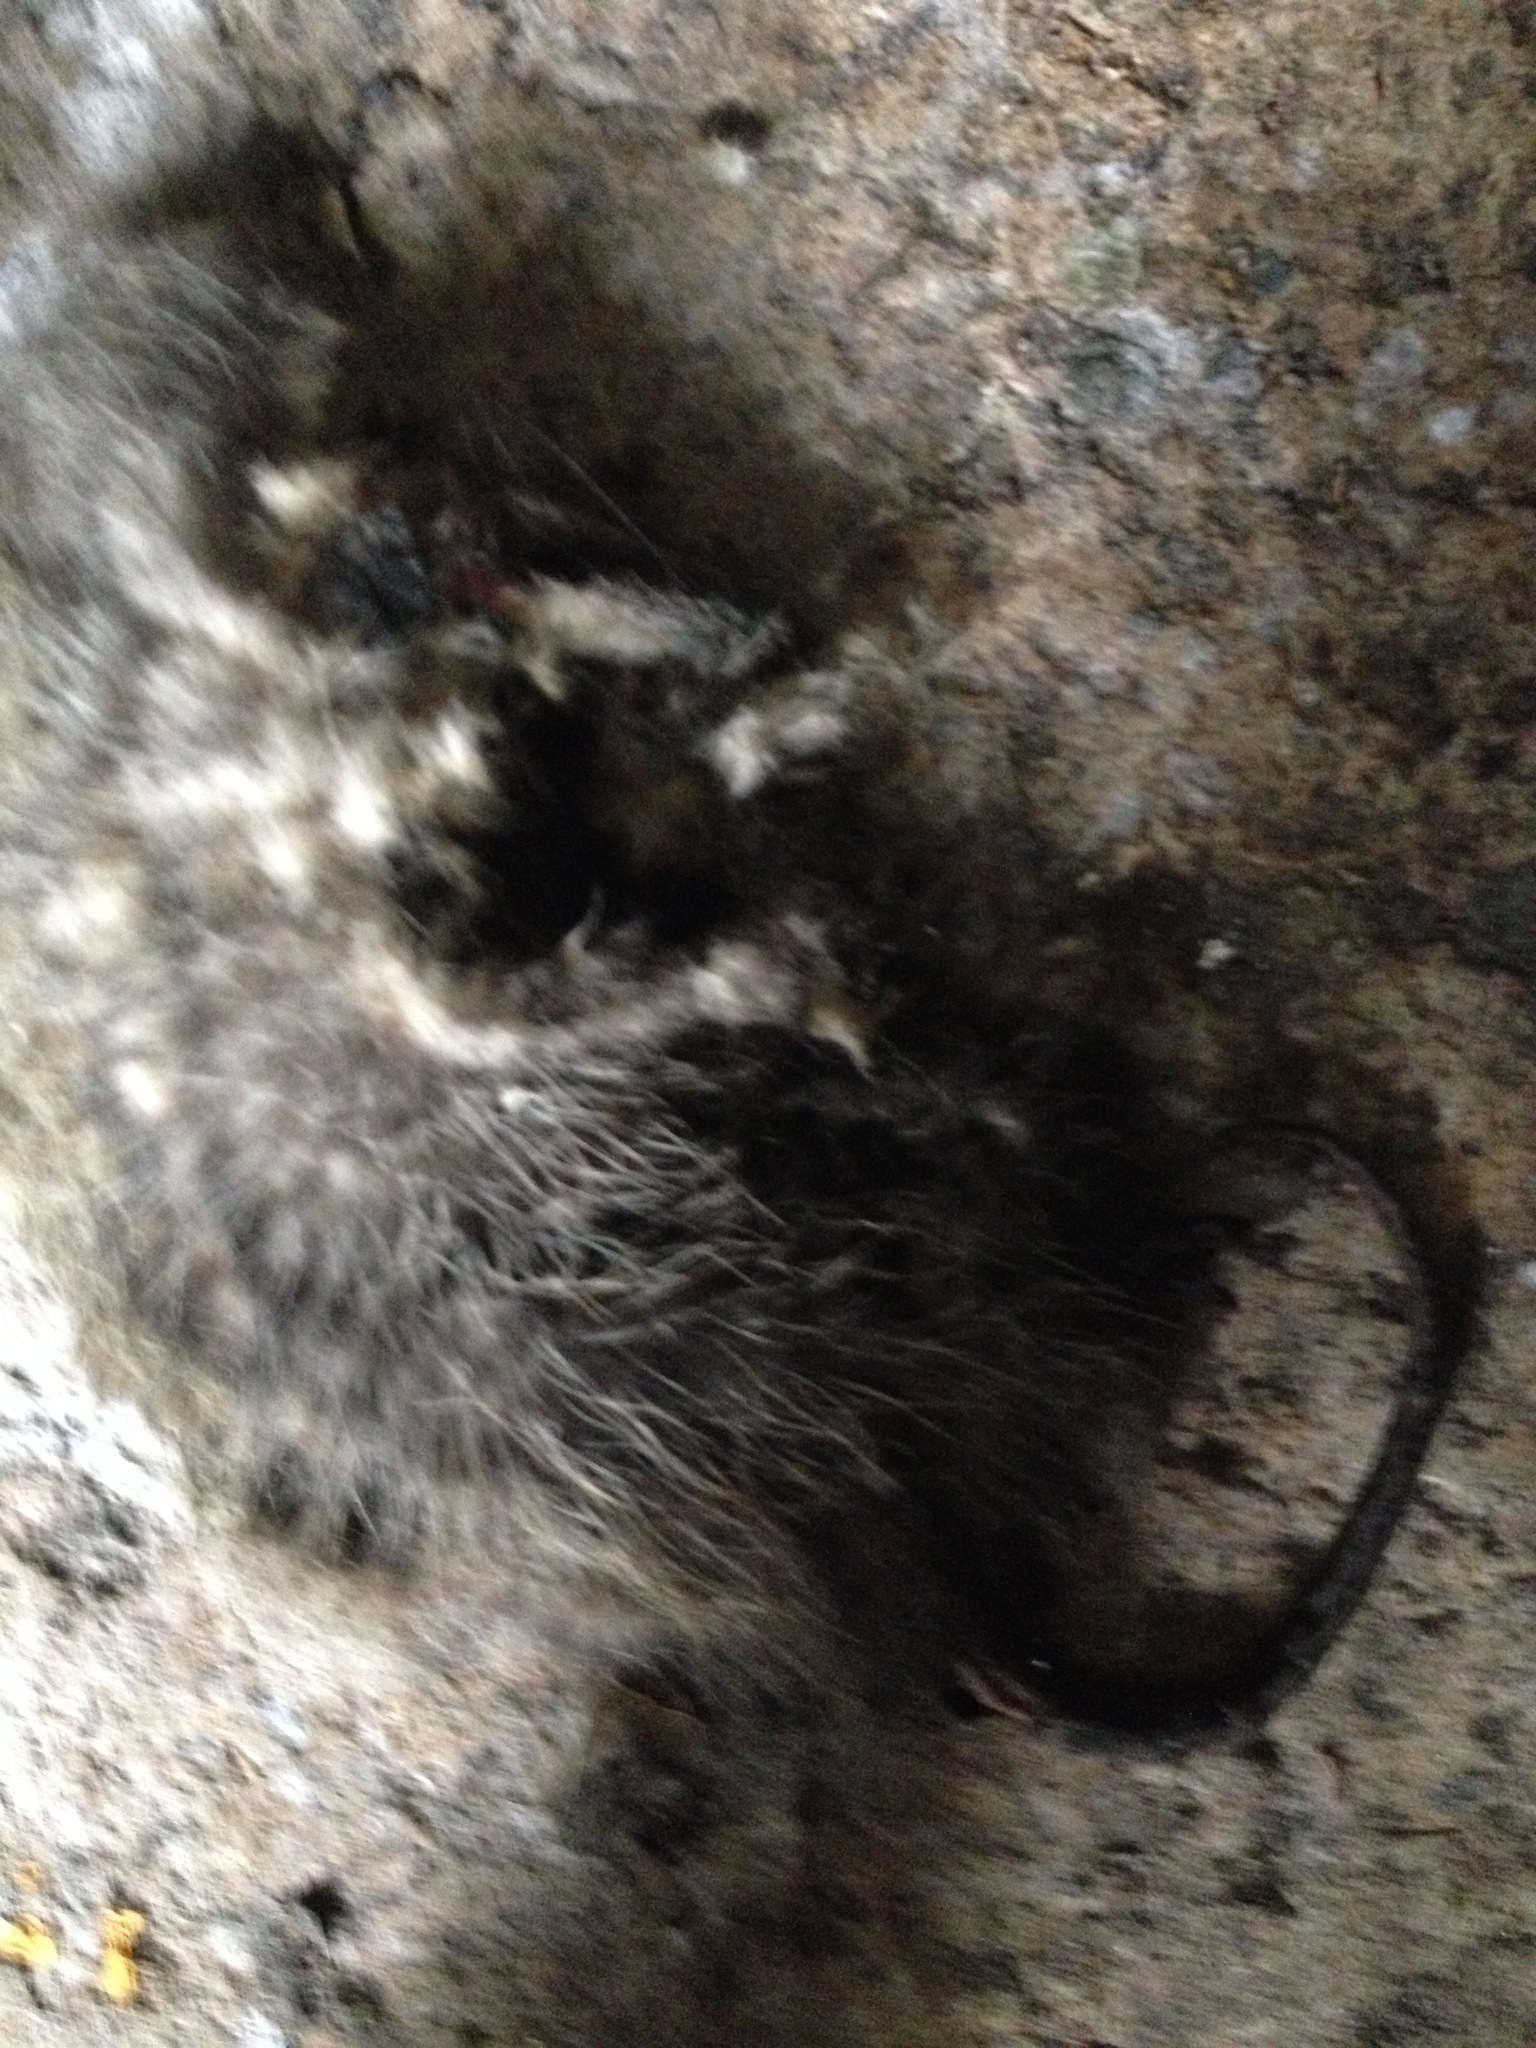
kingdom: Animalia
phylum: Chordata
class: Mammalia
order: Didelphimorphia
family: Didelphidae
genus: Didelphis
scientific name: Didelphis virginiana
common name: Virginia opossum
